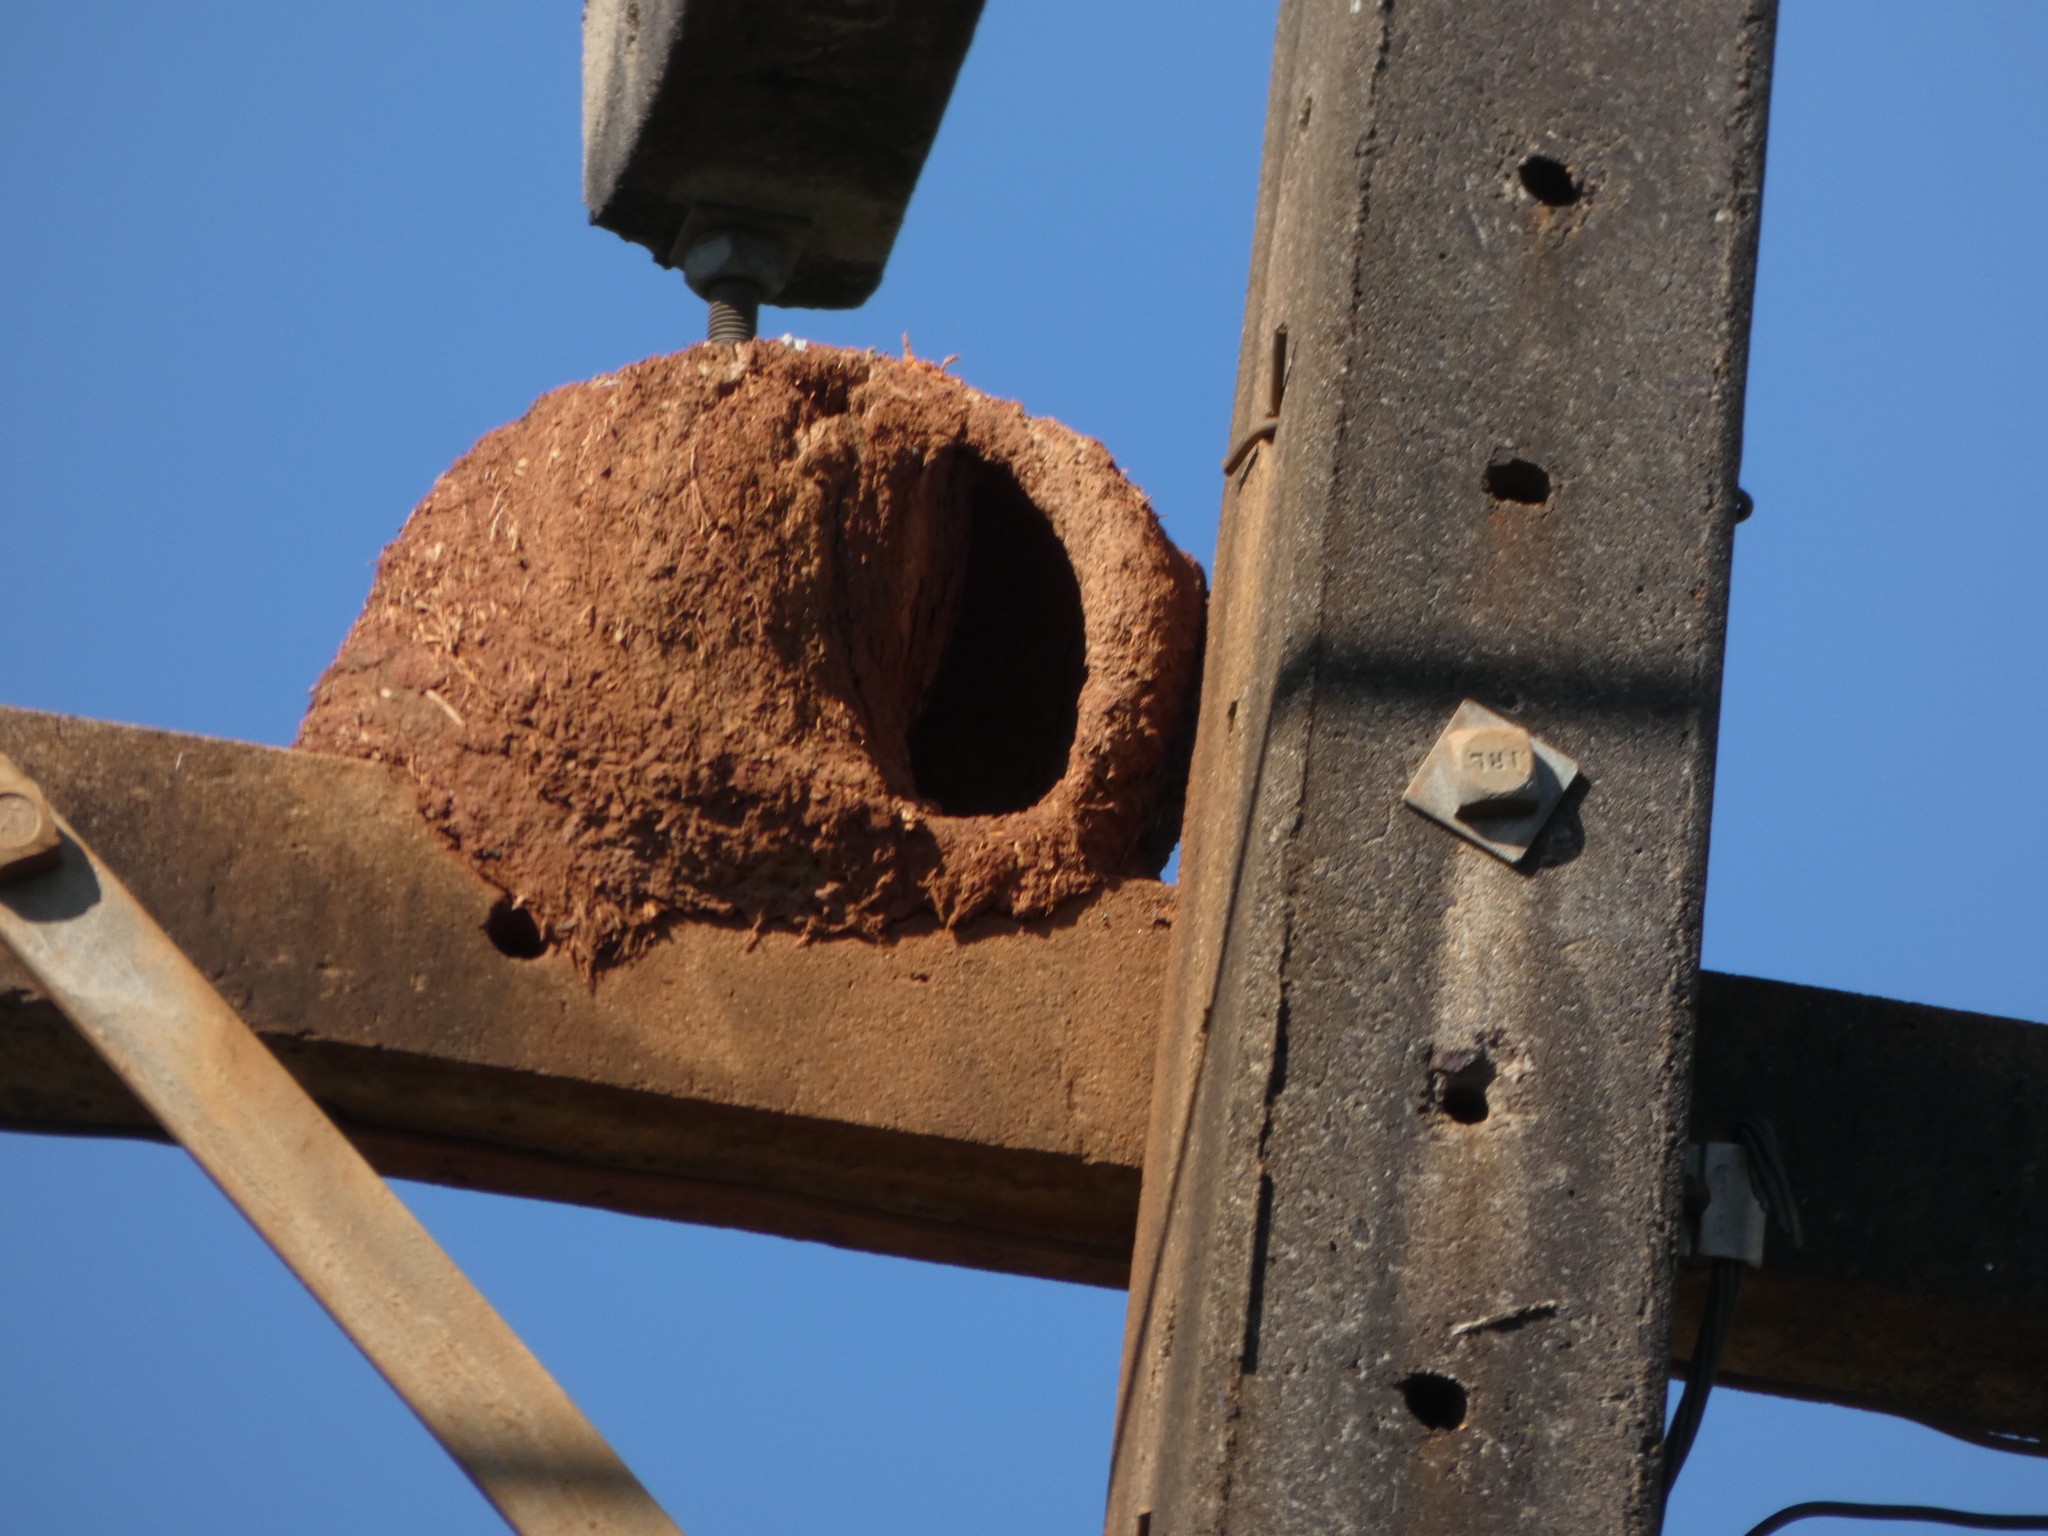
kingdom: Animalia
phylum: Chordata
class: Aves
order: Passeriformes
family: Furnariidae
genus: Furnarius
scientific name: Furnarius rufus
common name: Rufous hornero
